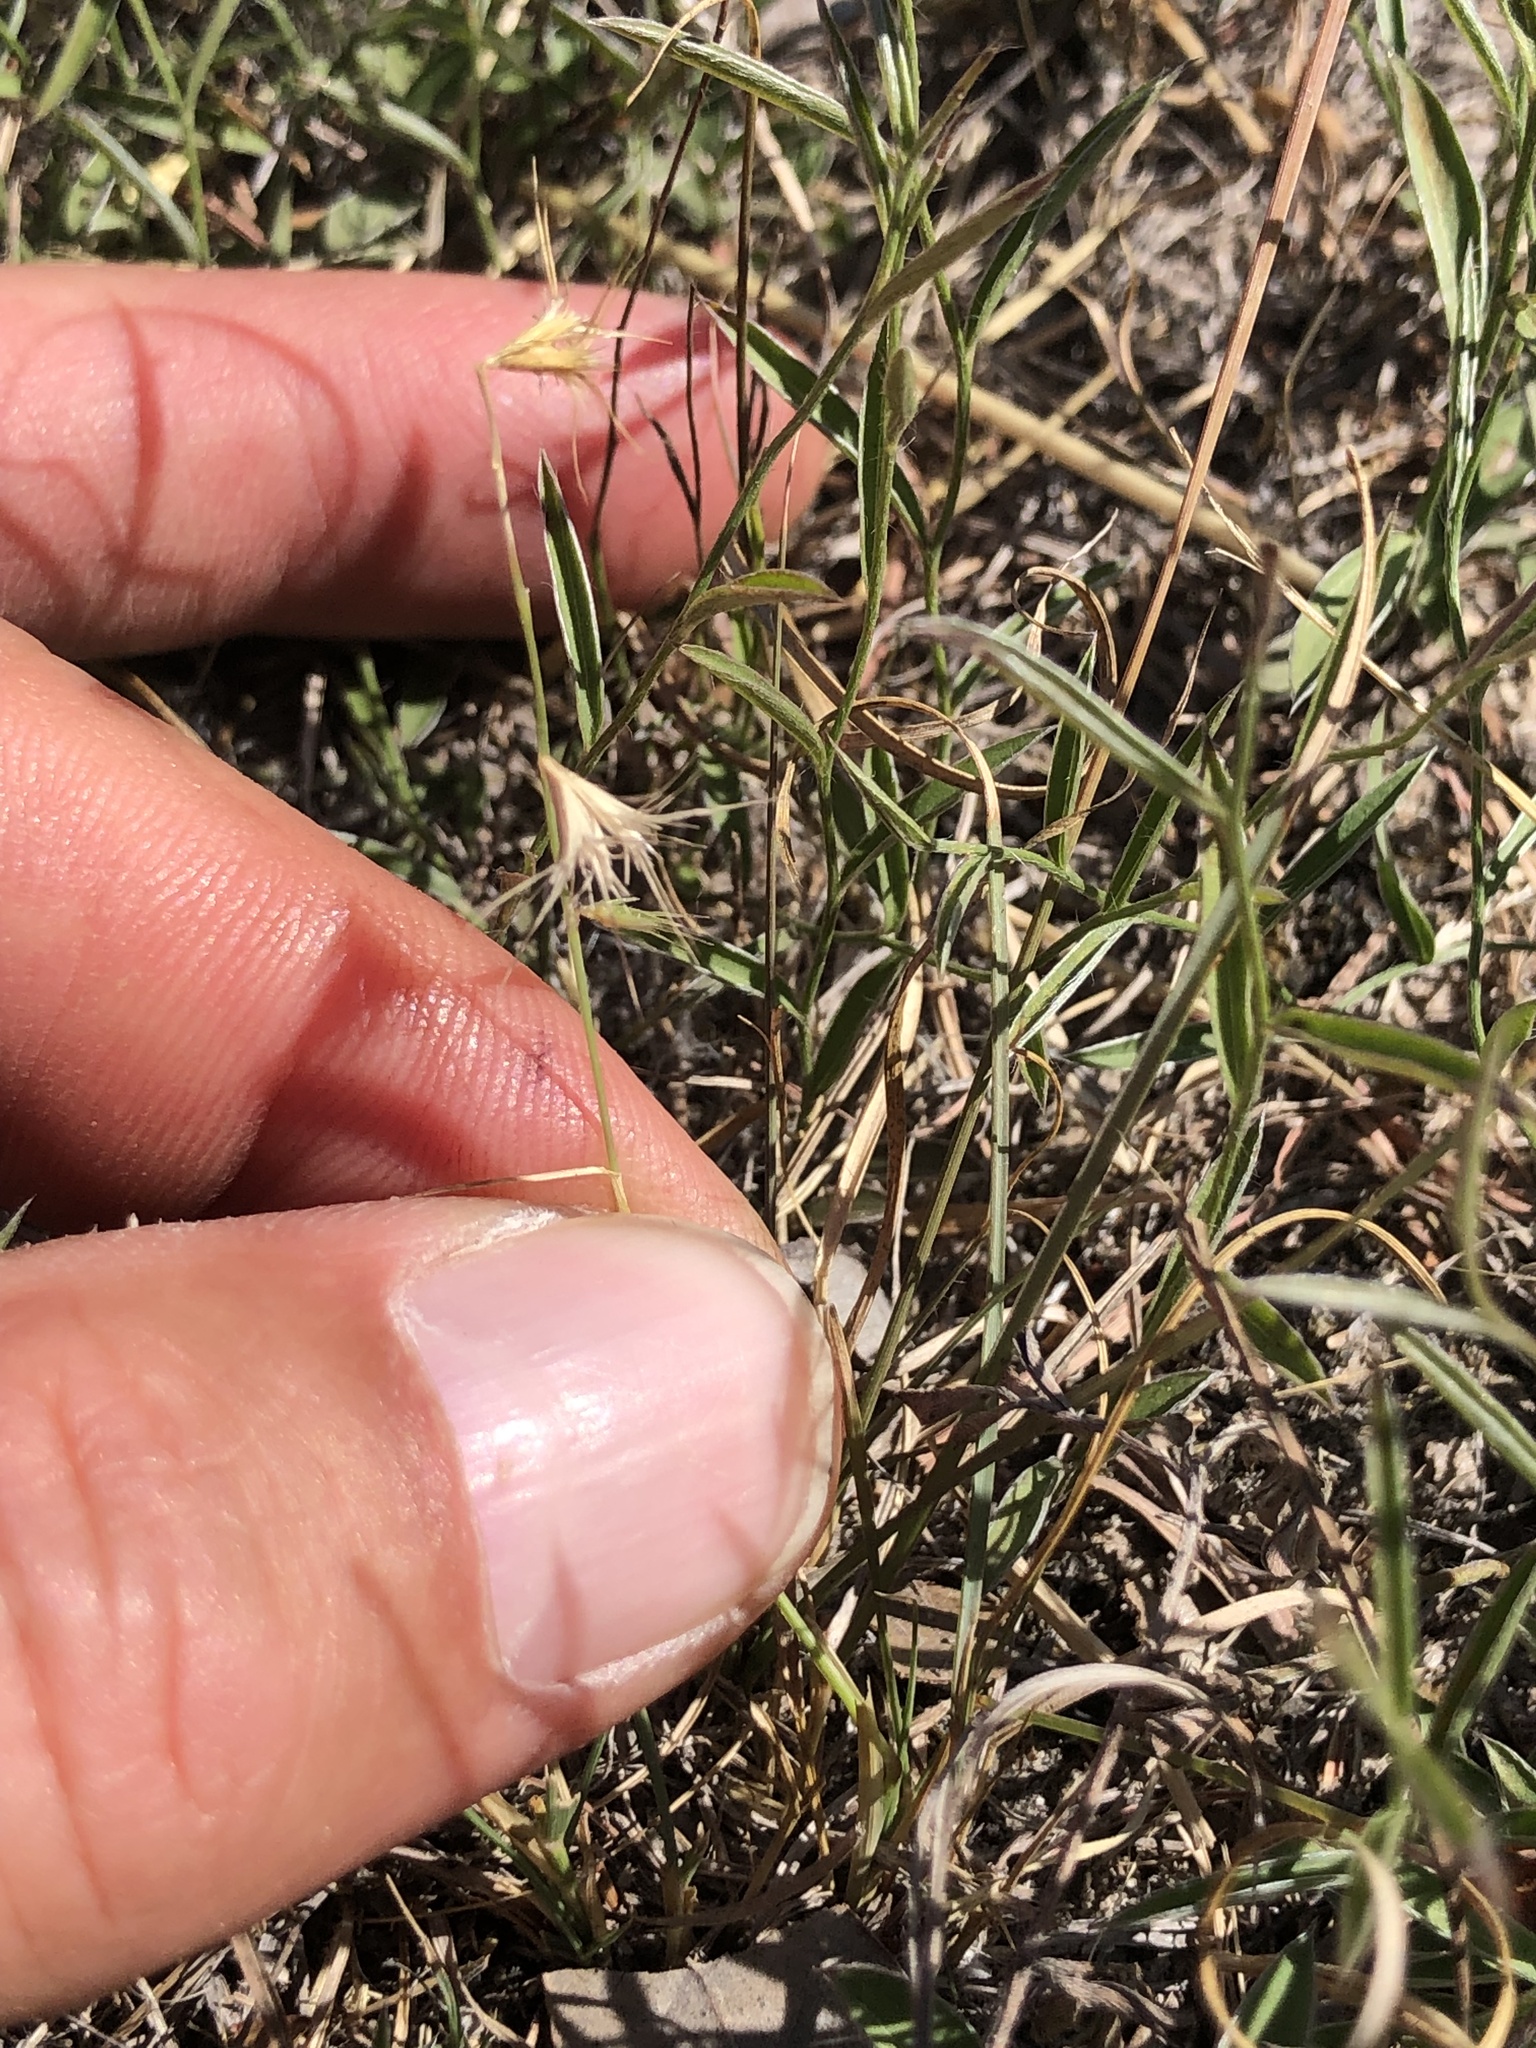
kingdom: Plantae
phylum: Tracheophyta
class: Liliopsida
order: Poales
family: Poaceae
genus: Bouteloua
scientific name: Bouteloua rigidiseta
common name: Texas grama
